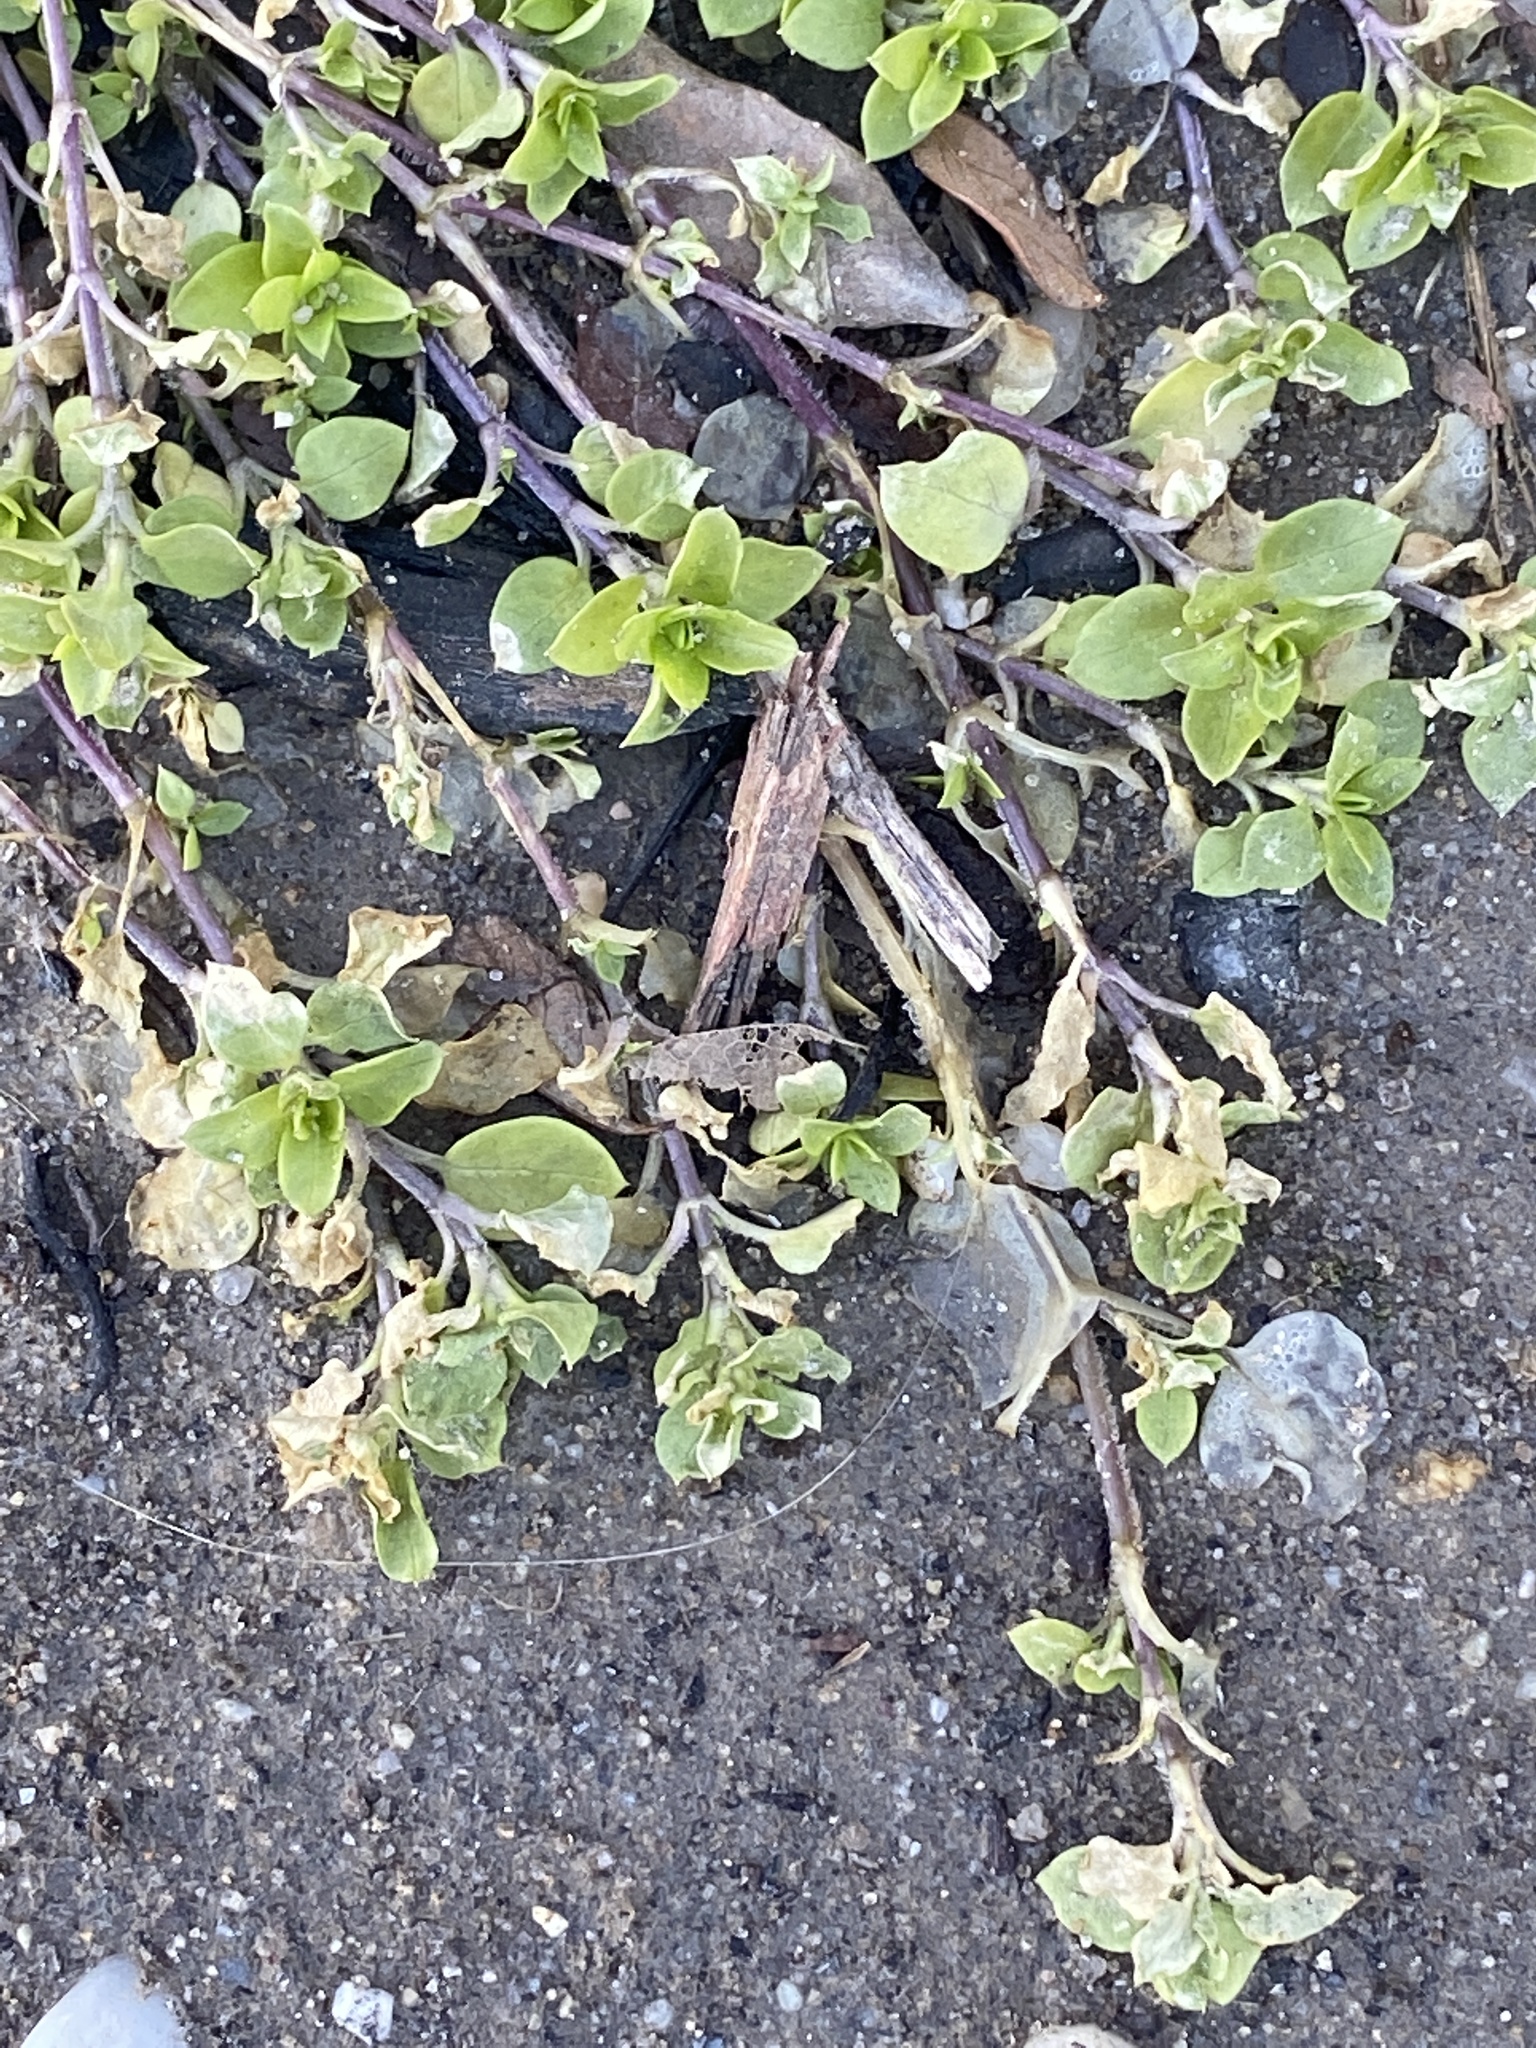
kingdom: Plantae
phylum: Tracheophyta
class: Magnoliopsida
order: Caryophyllales
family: Caryophyllaceae
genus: Stellaria
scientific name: Stellaria media
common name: Common chickweed
